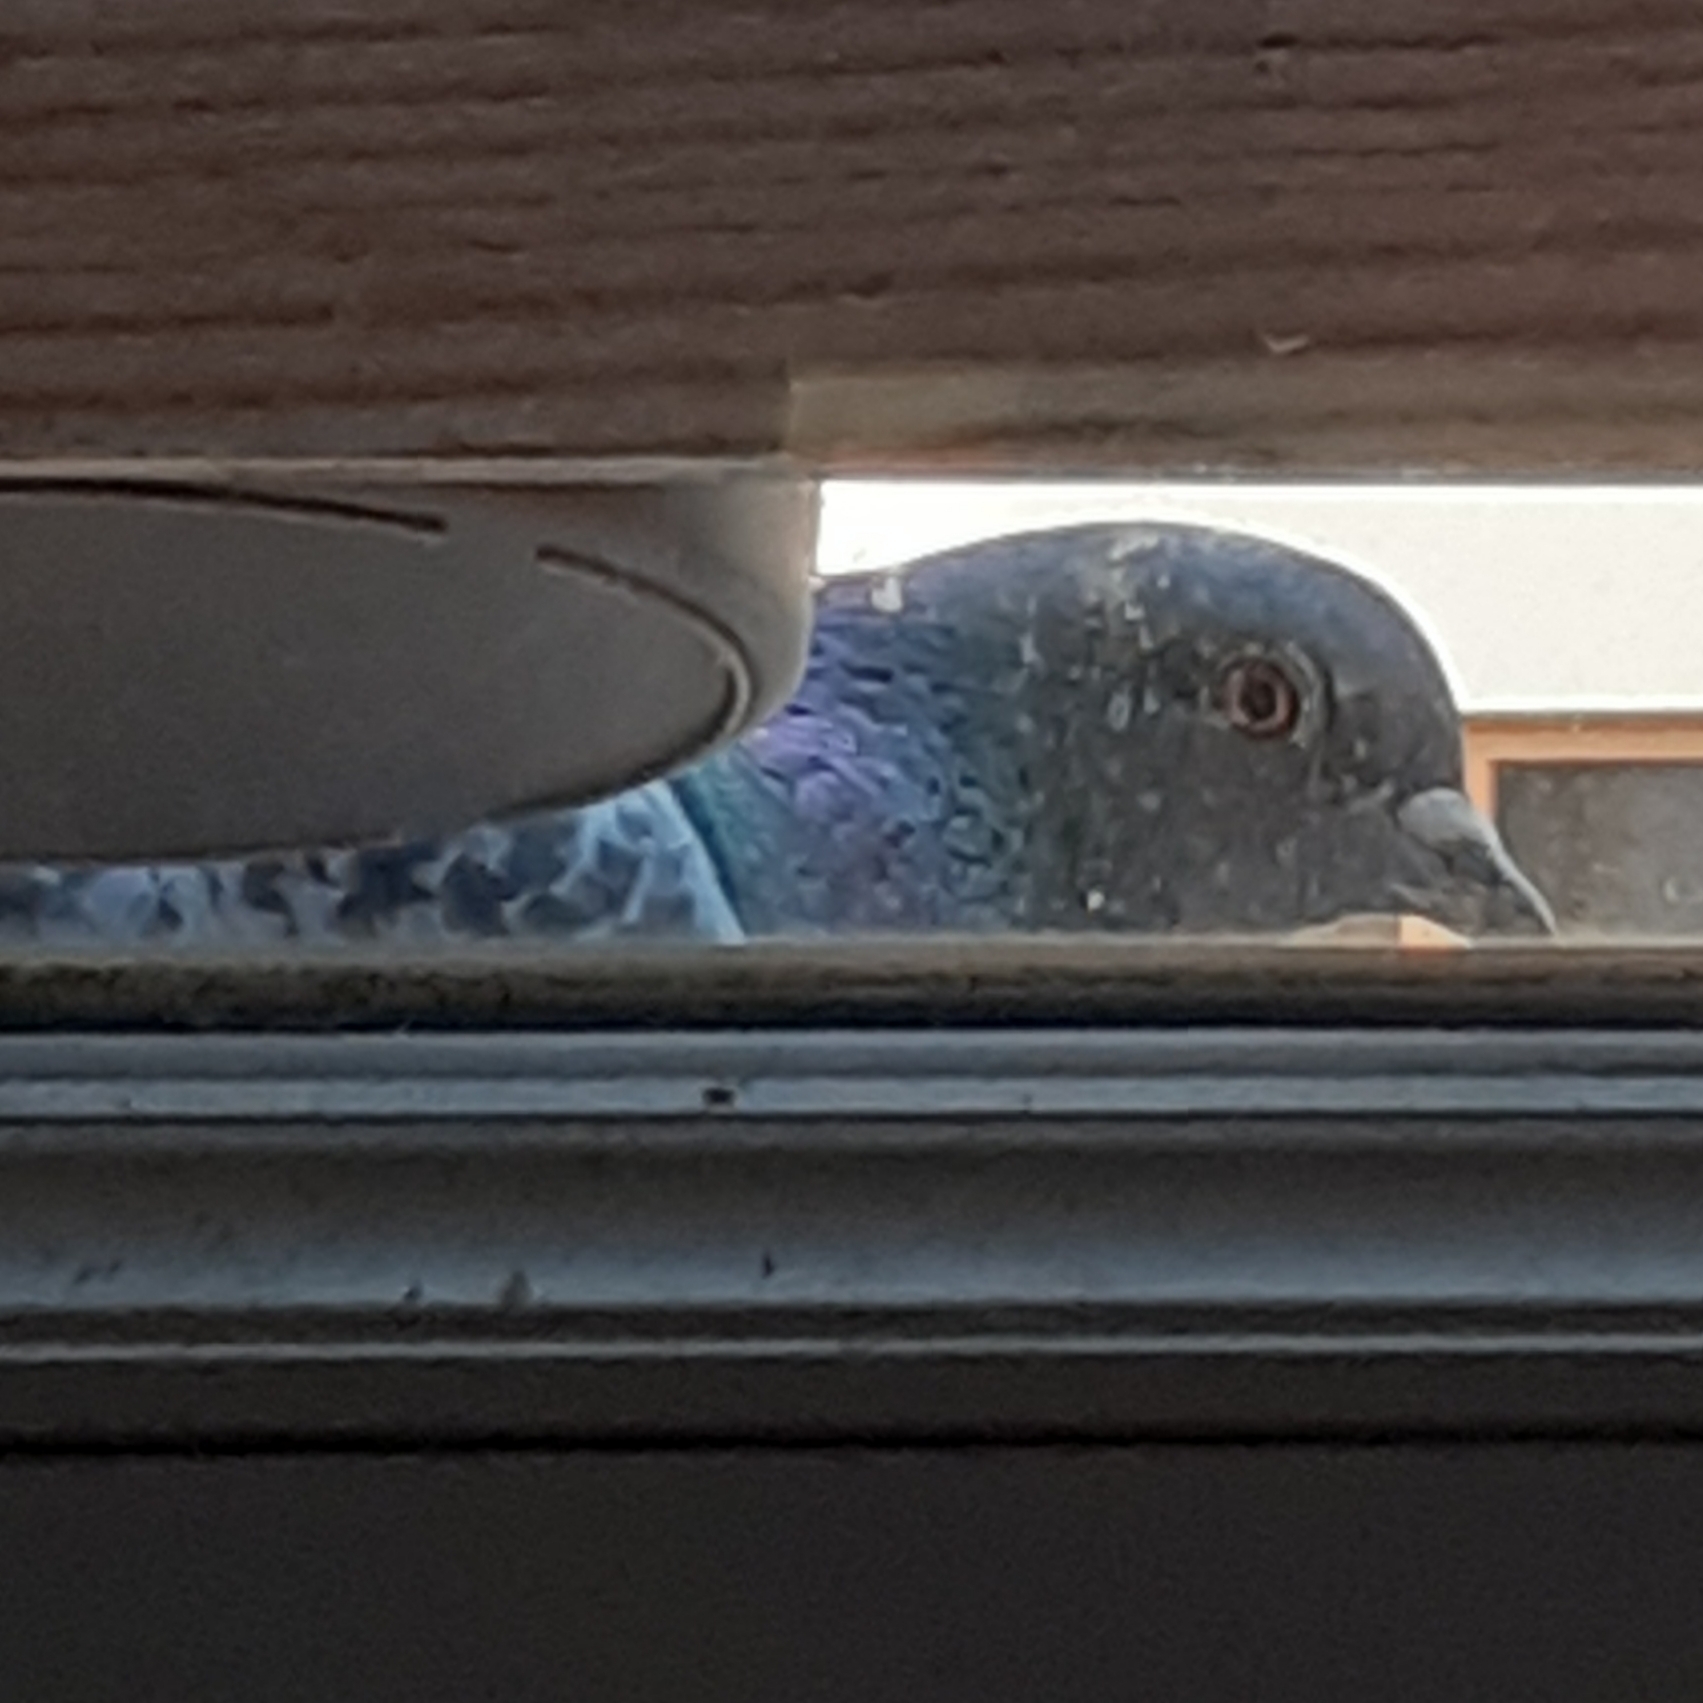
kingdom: Animalia
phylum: Chordata
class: Aves
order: Columbiformes
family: Columbidae
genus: Columba
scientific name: Columba livia
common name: Rock pigeon
